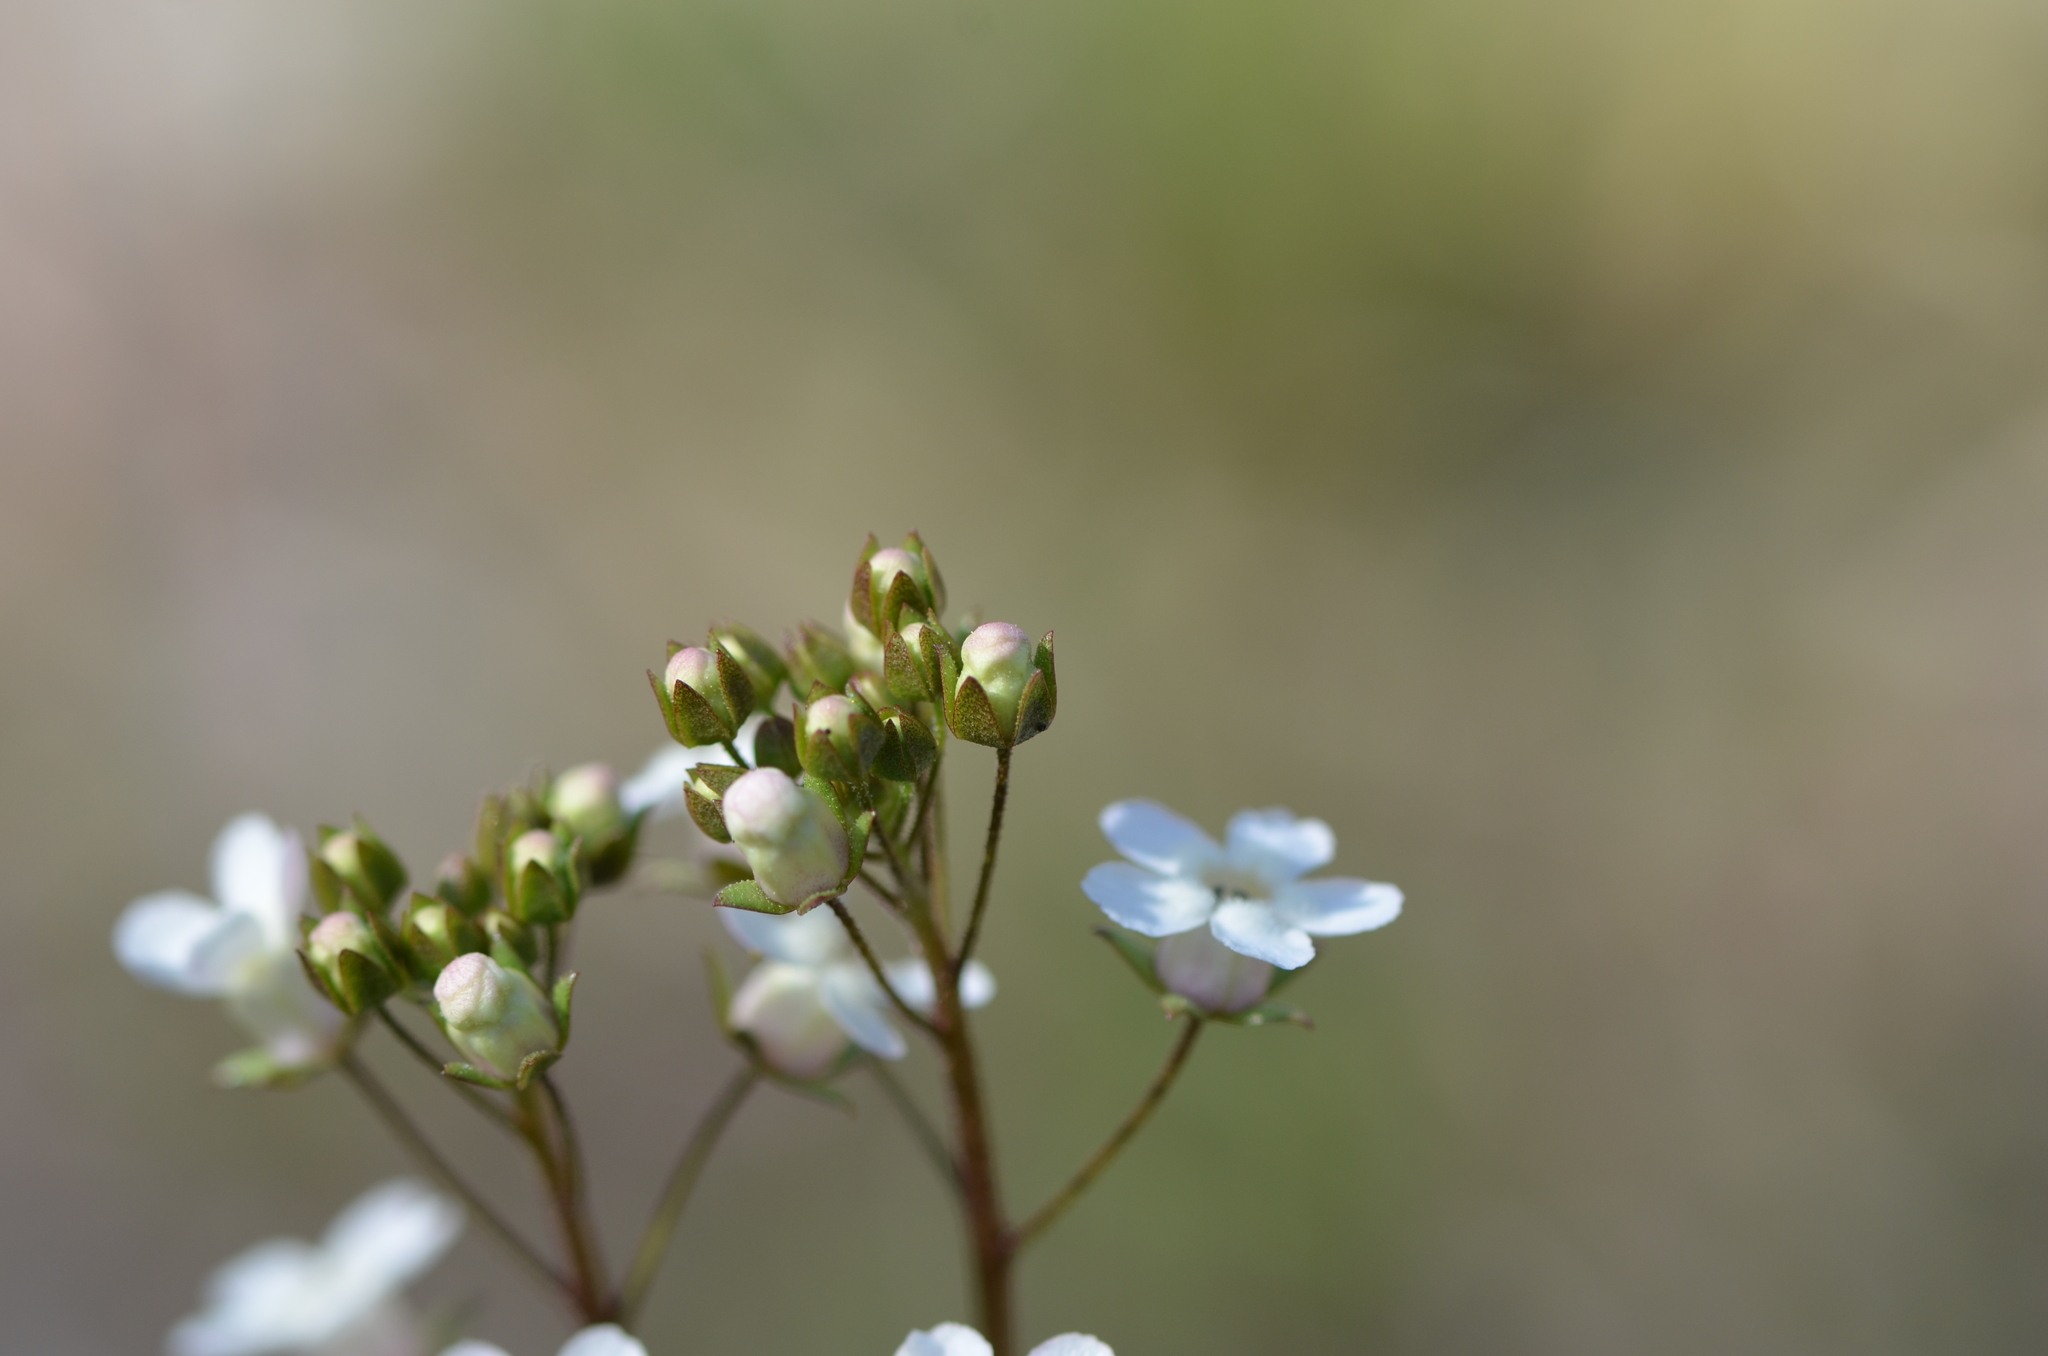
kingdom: Plantae
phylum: Tracheophyta
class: Magnoliopsida
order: Ericales
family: Primulaceae
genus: Samolus
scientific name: Samolus ebracteatus
